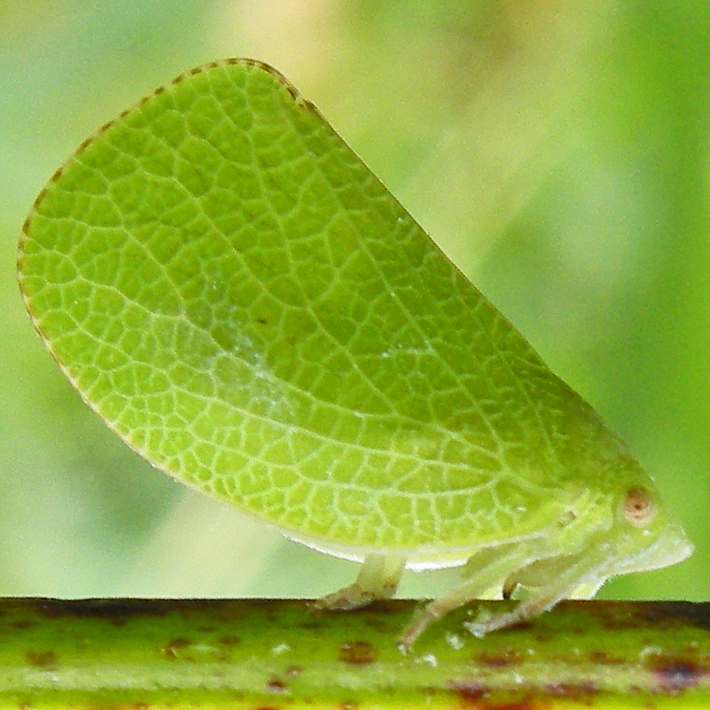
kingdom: Animalia
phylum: Arthropoda
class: Insecta
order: Hemiptera
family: Acanaloniidae
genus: Acanalonia
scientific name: Acanalonia conica
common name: Green cone-headed planthopper
